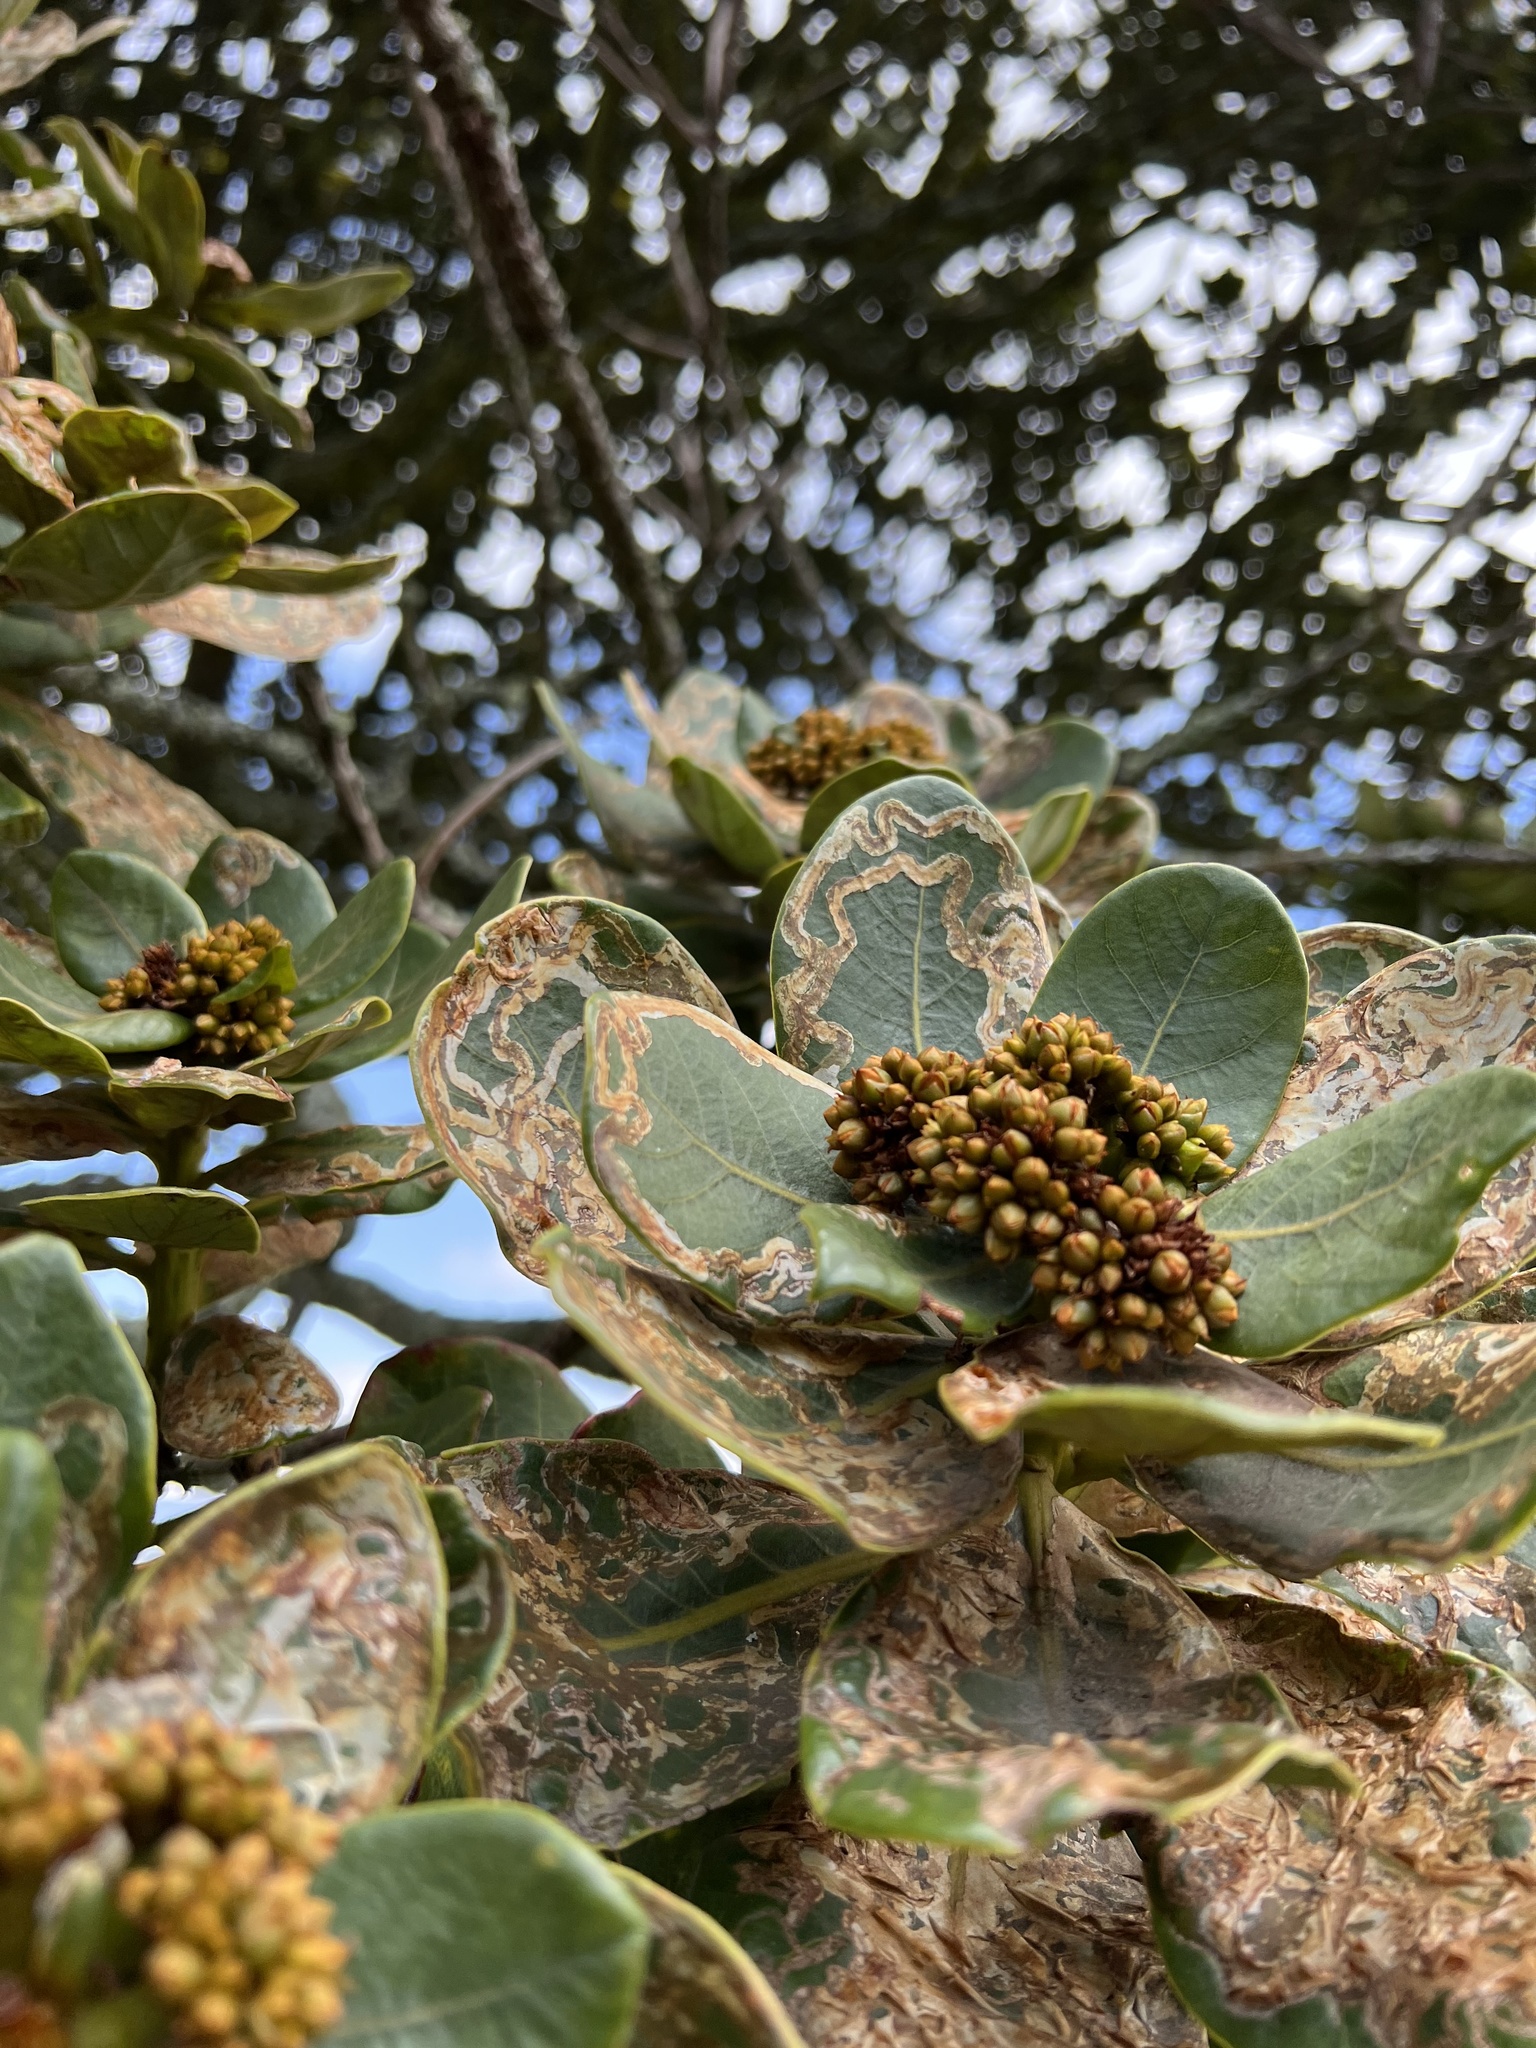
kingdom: Plantae
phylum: Tracheophyta
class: Magnoliopsida
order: Laurales
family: Lauraceae
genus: Persea
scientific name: Persea mutisii
